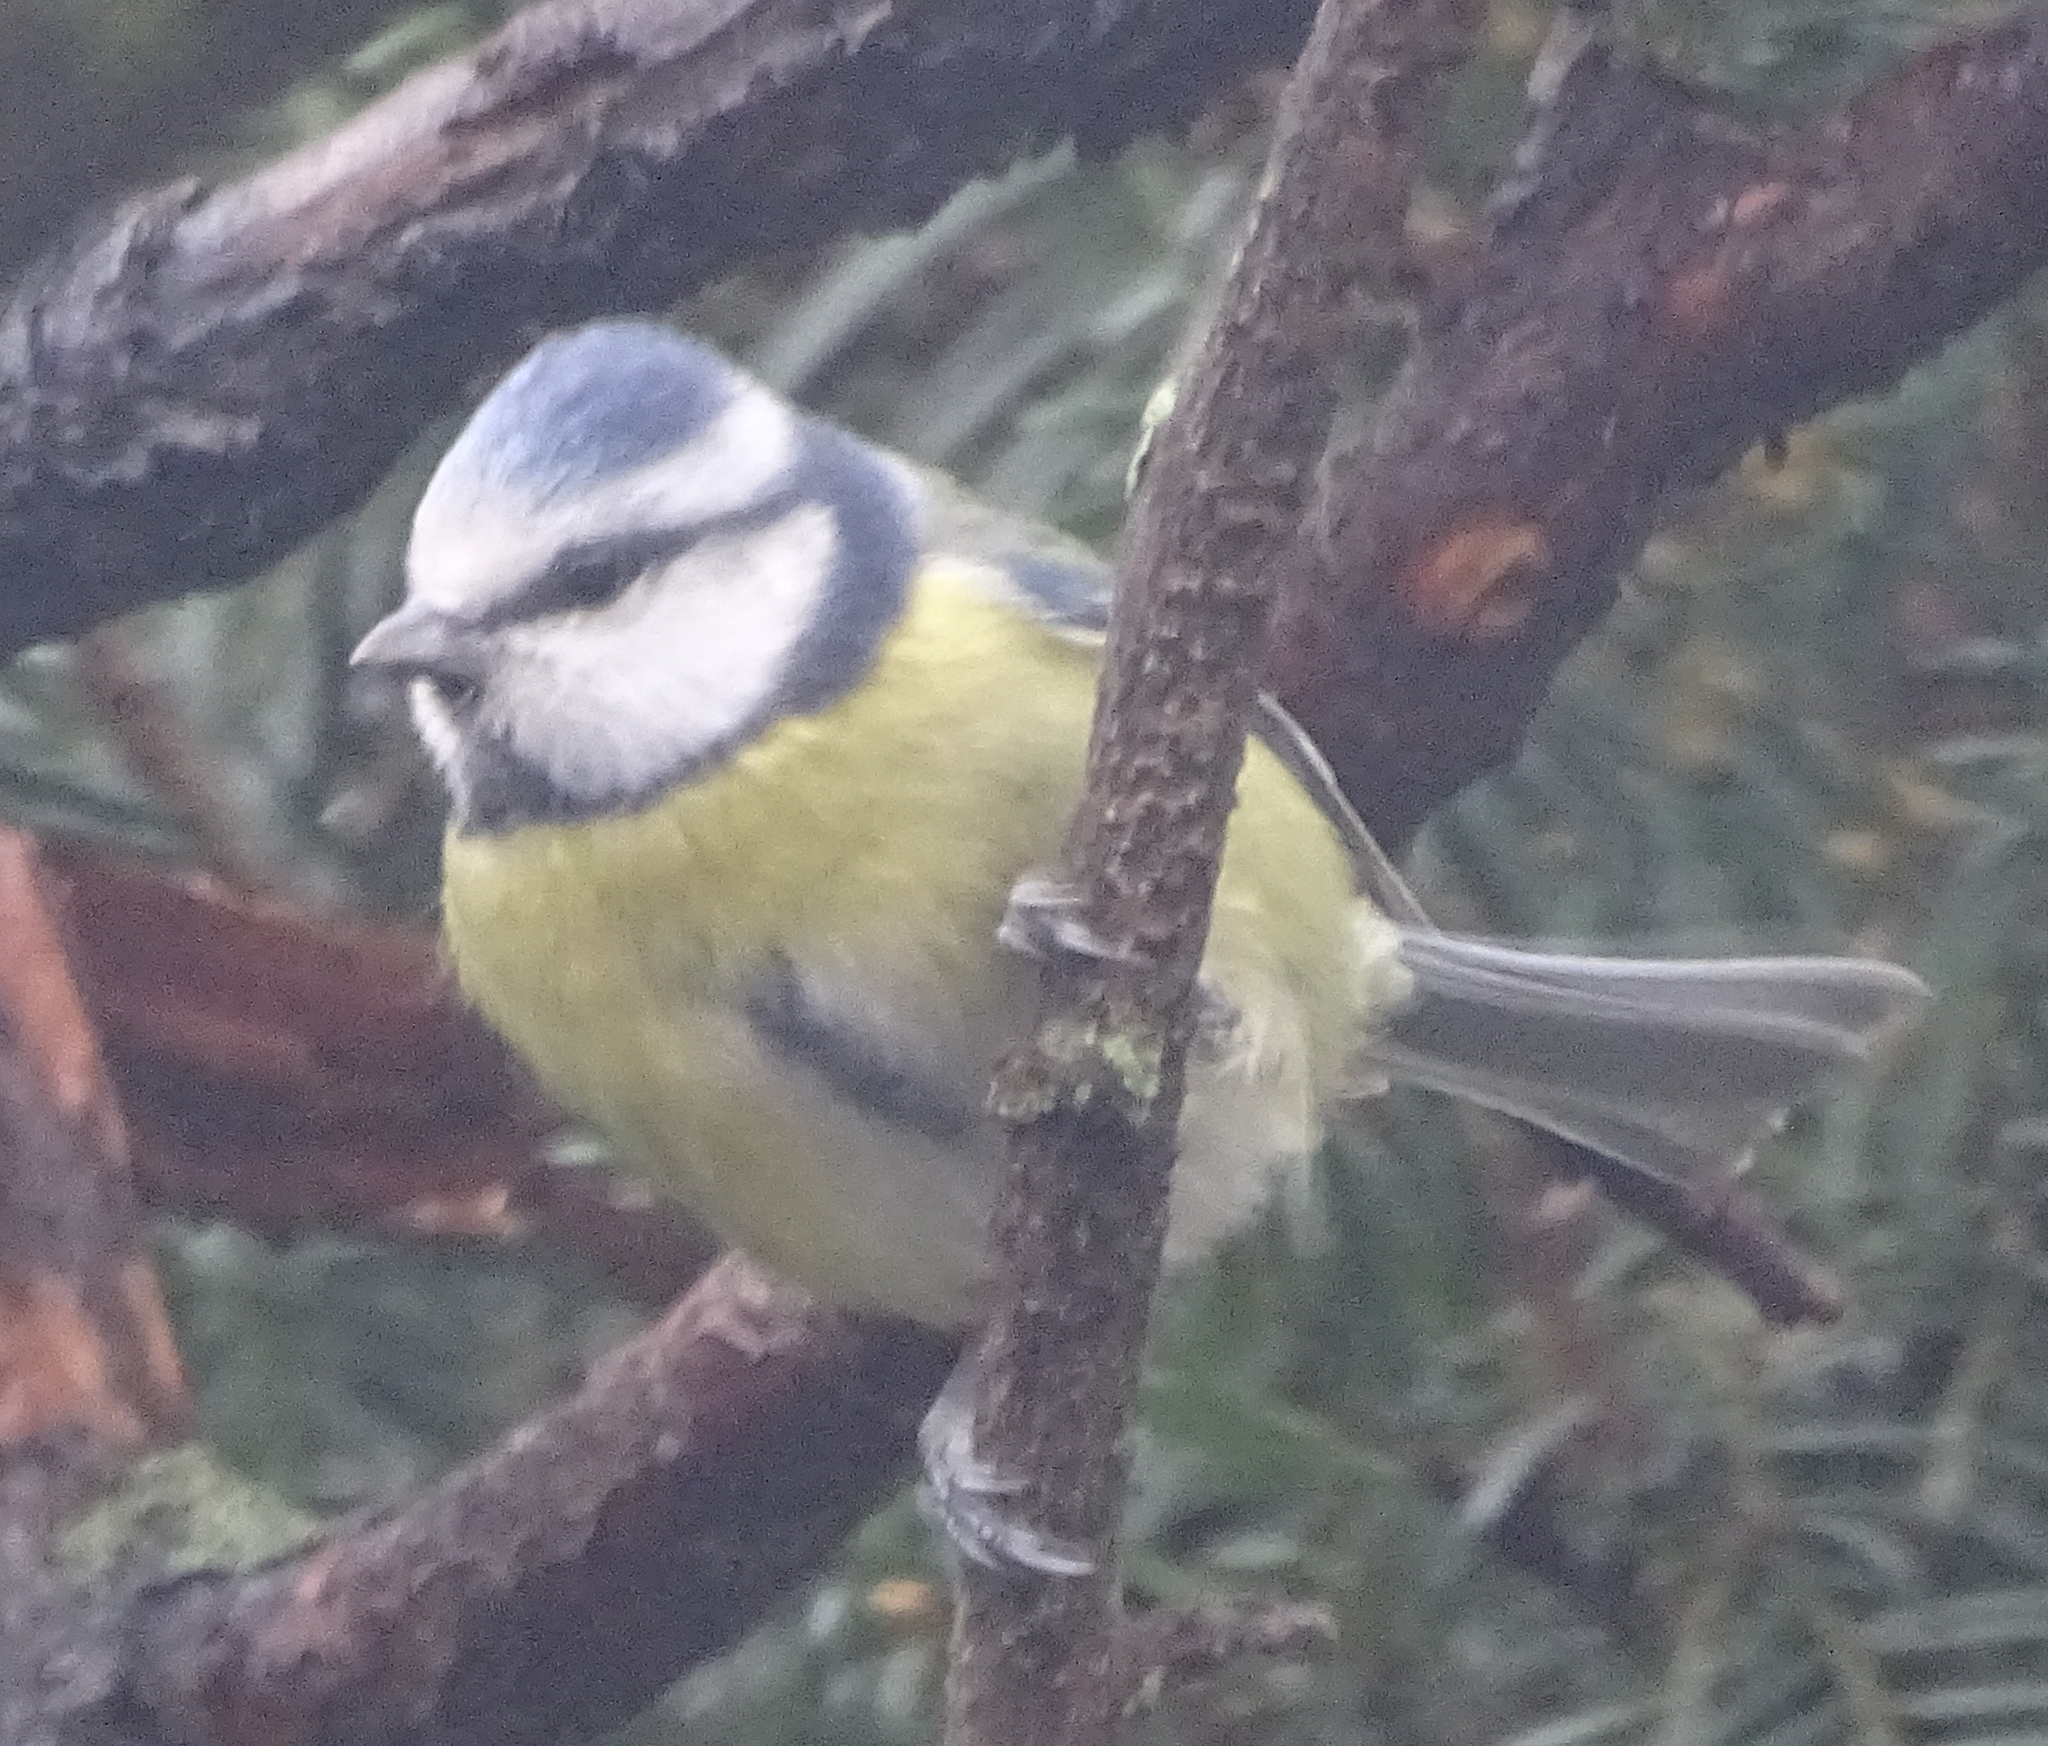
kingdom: Animalia
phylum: Chordata
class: Aves
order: Passeriformes
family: Paridae
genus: Cyanistes
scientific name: Cyanistes caeruleus
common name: Eurasian blue tit
